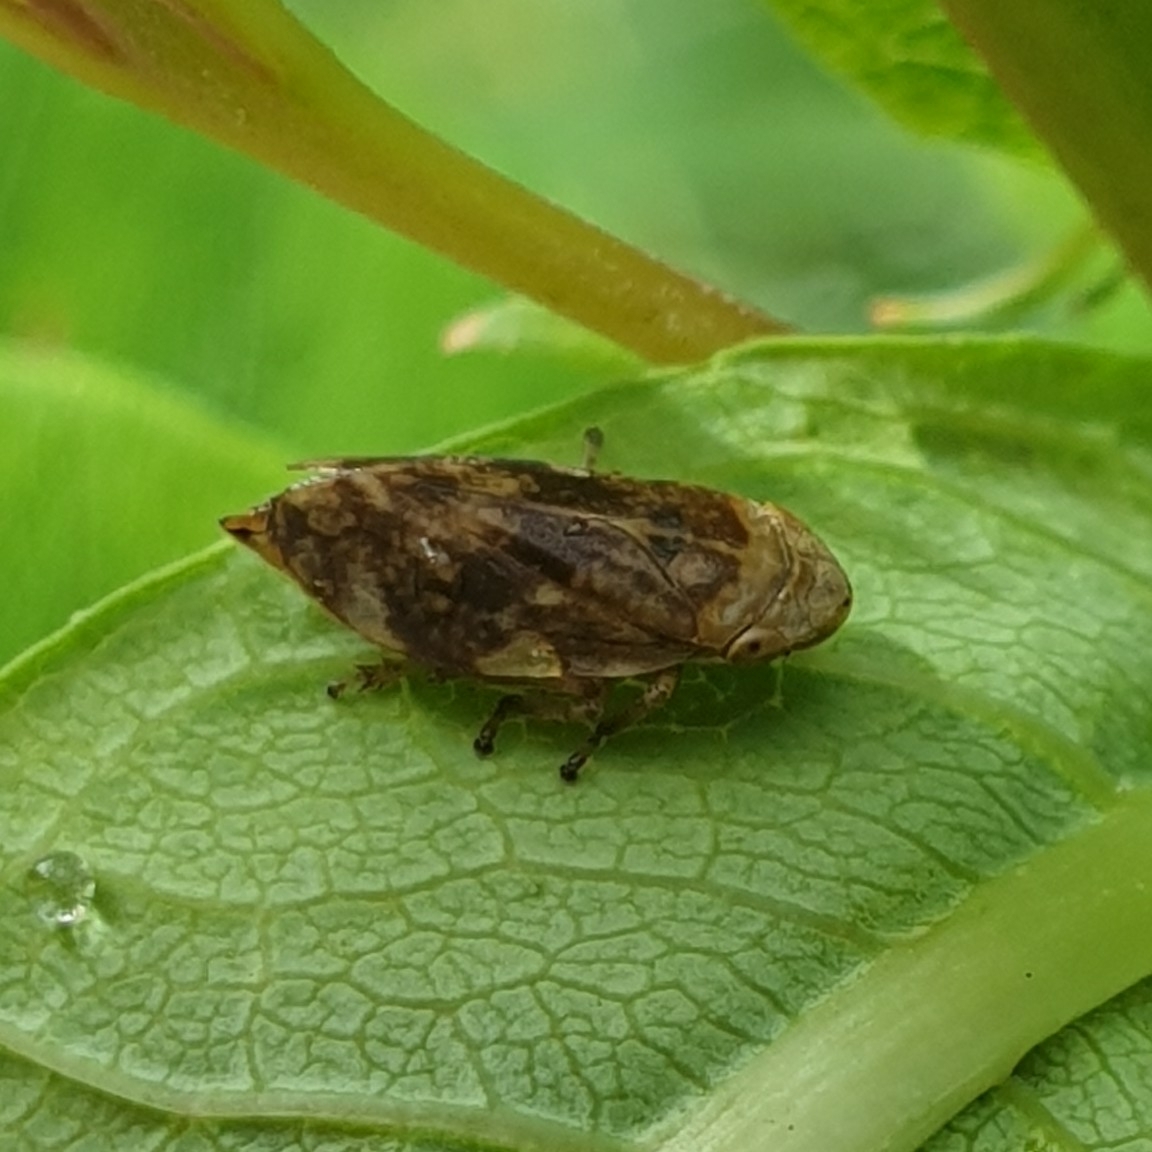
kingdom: Animalia
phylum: Arthropoda
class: Insecta
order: Hemiptera
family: Aphrophoridae
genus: Philaenus
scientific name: Philaenus spumarius
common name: Meadow spittlebug
